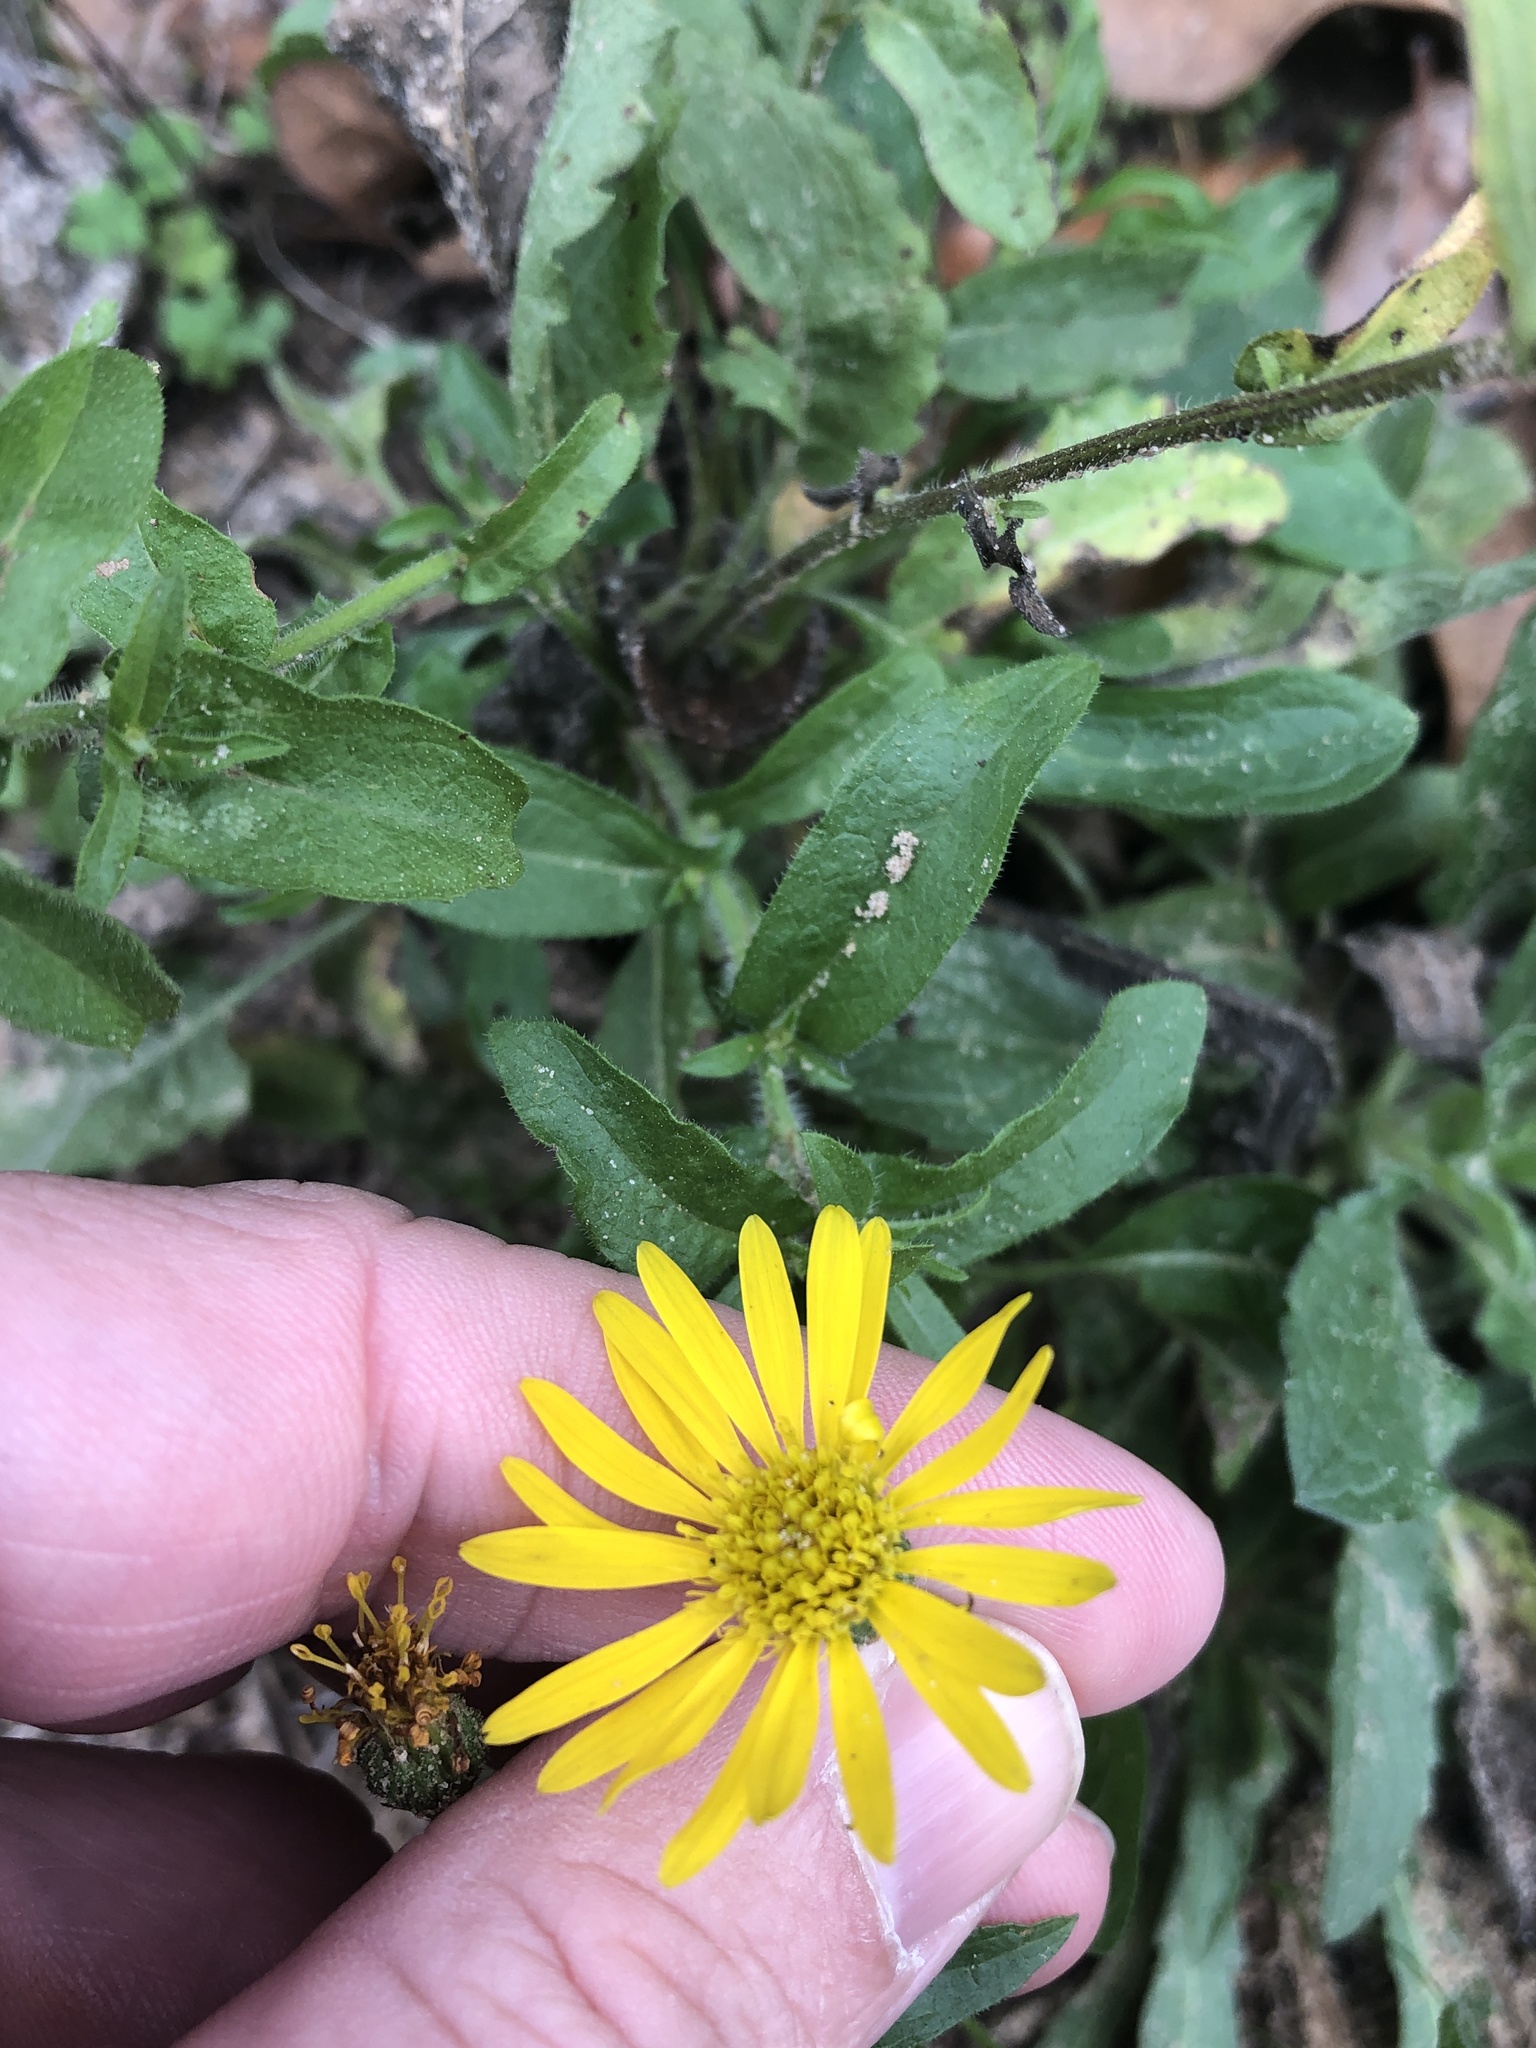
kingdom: Plantae
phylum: Tracheophyta
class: Magnoliopsida
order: Asterales
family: Asteraceae
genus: Heterotheca
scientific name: Heterotheca subaxillaris
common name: Camphorweed
